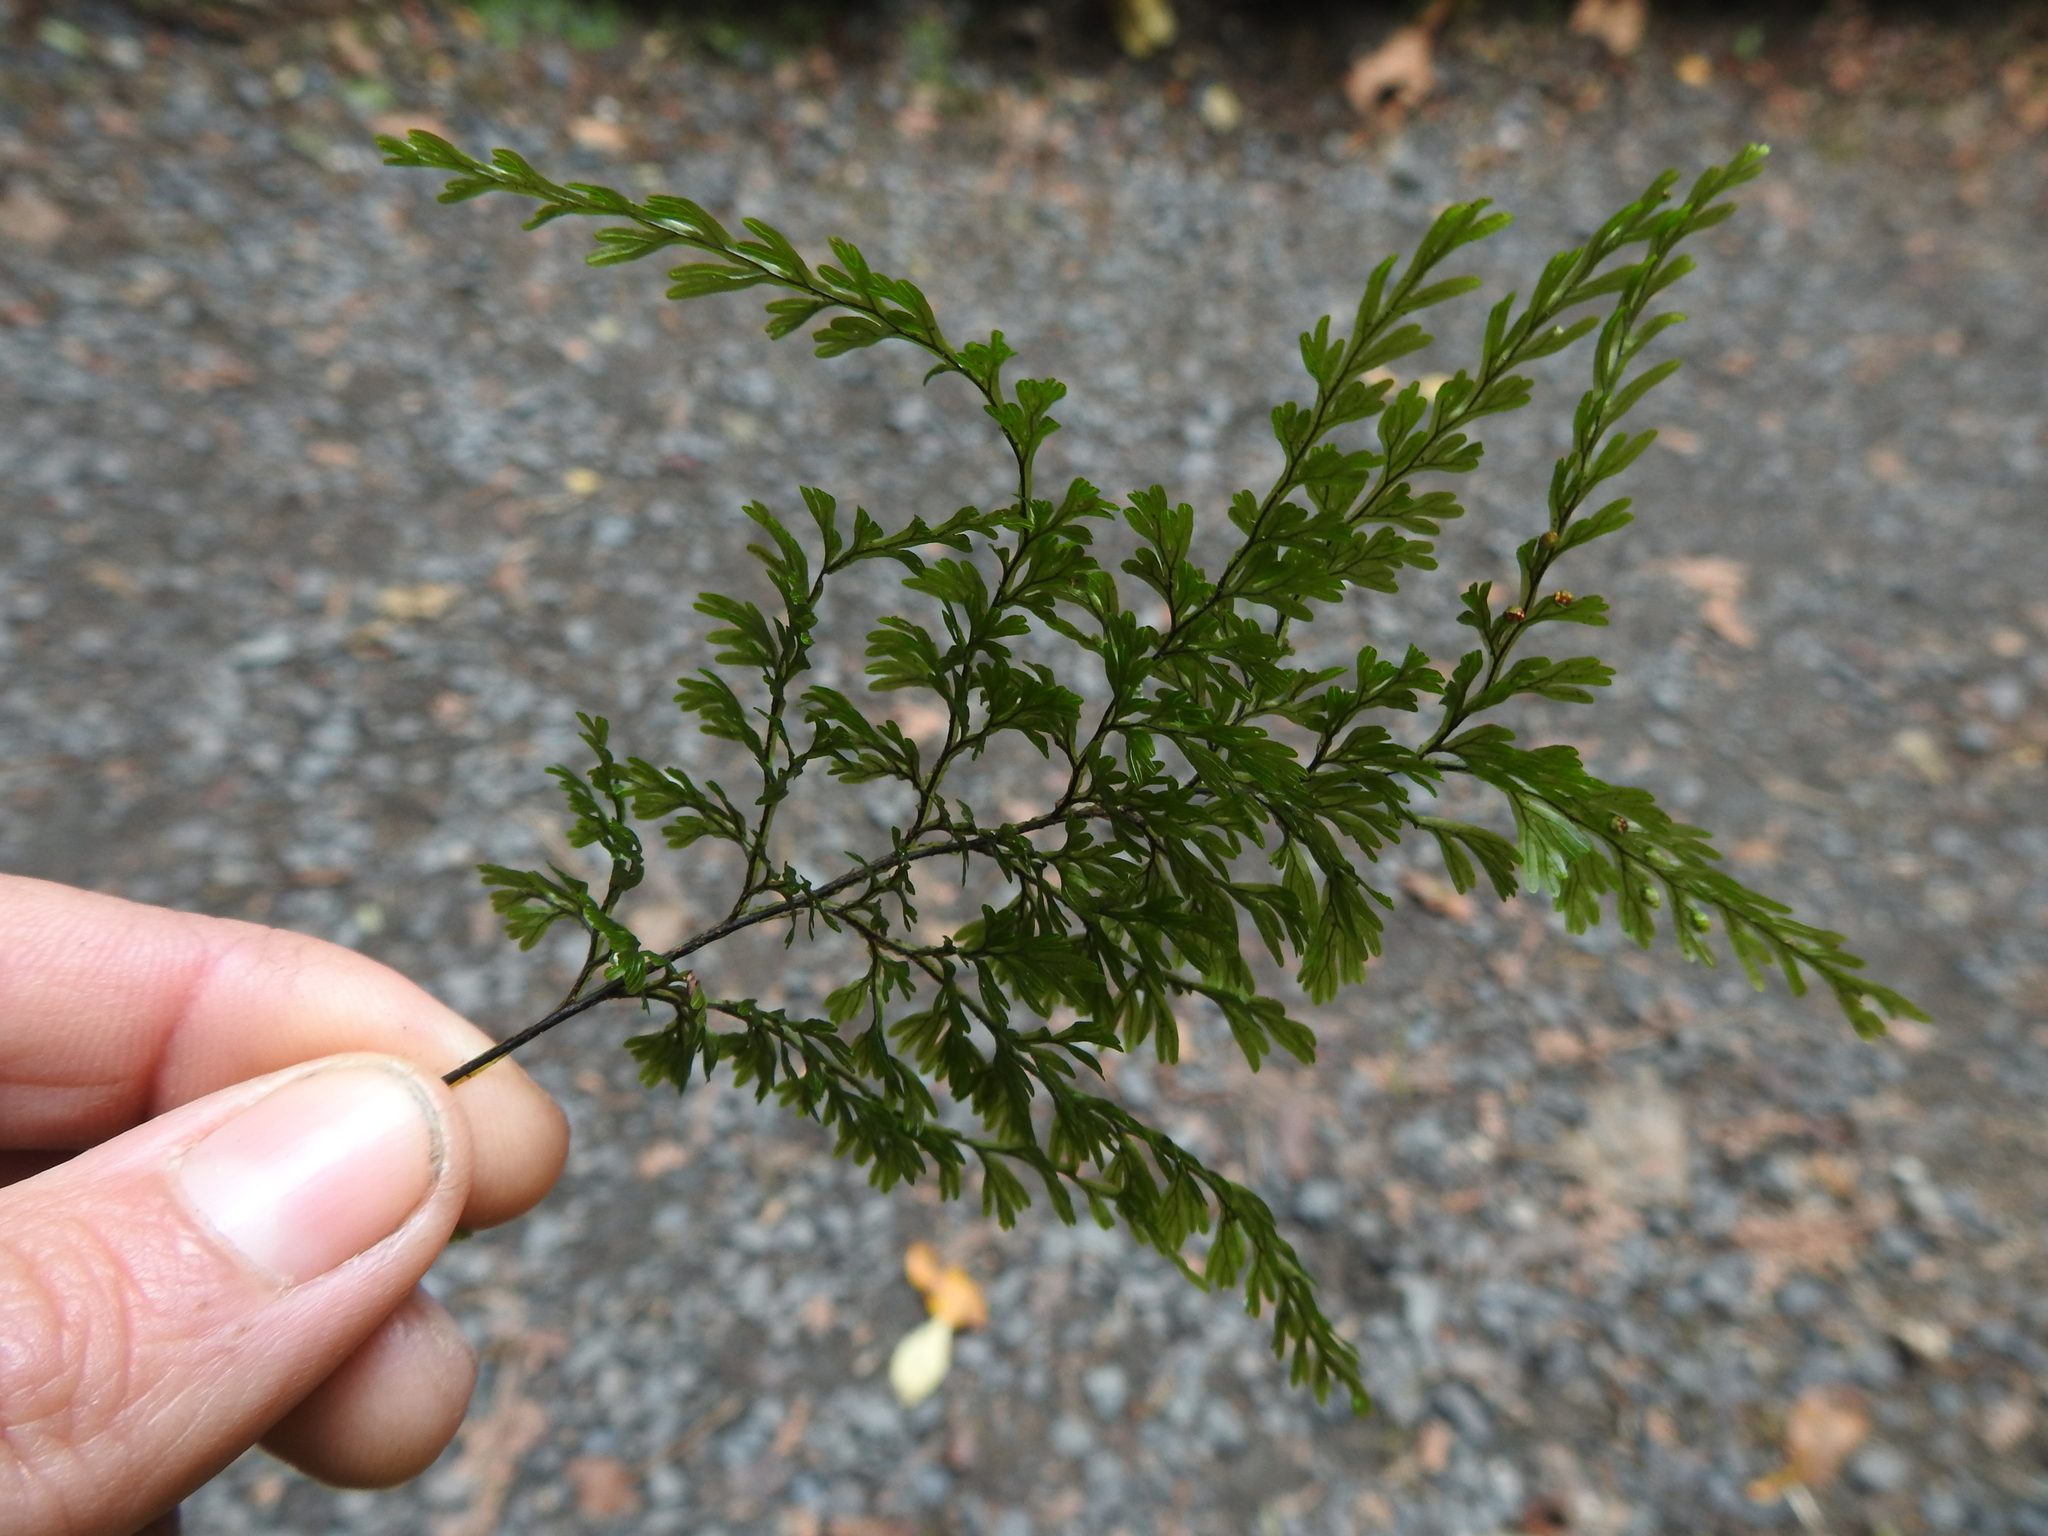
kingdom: Plantae
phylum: Tracheophyta
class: Polypodiopsida
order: Hymenophyllales
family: Hymenophyllaceae
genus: Hymenophyllum
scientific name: Hymenophyllum villosum
